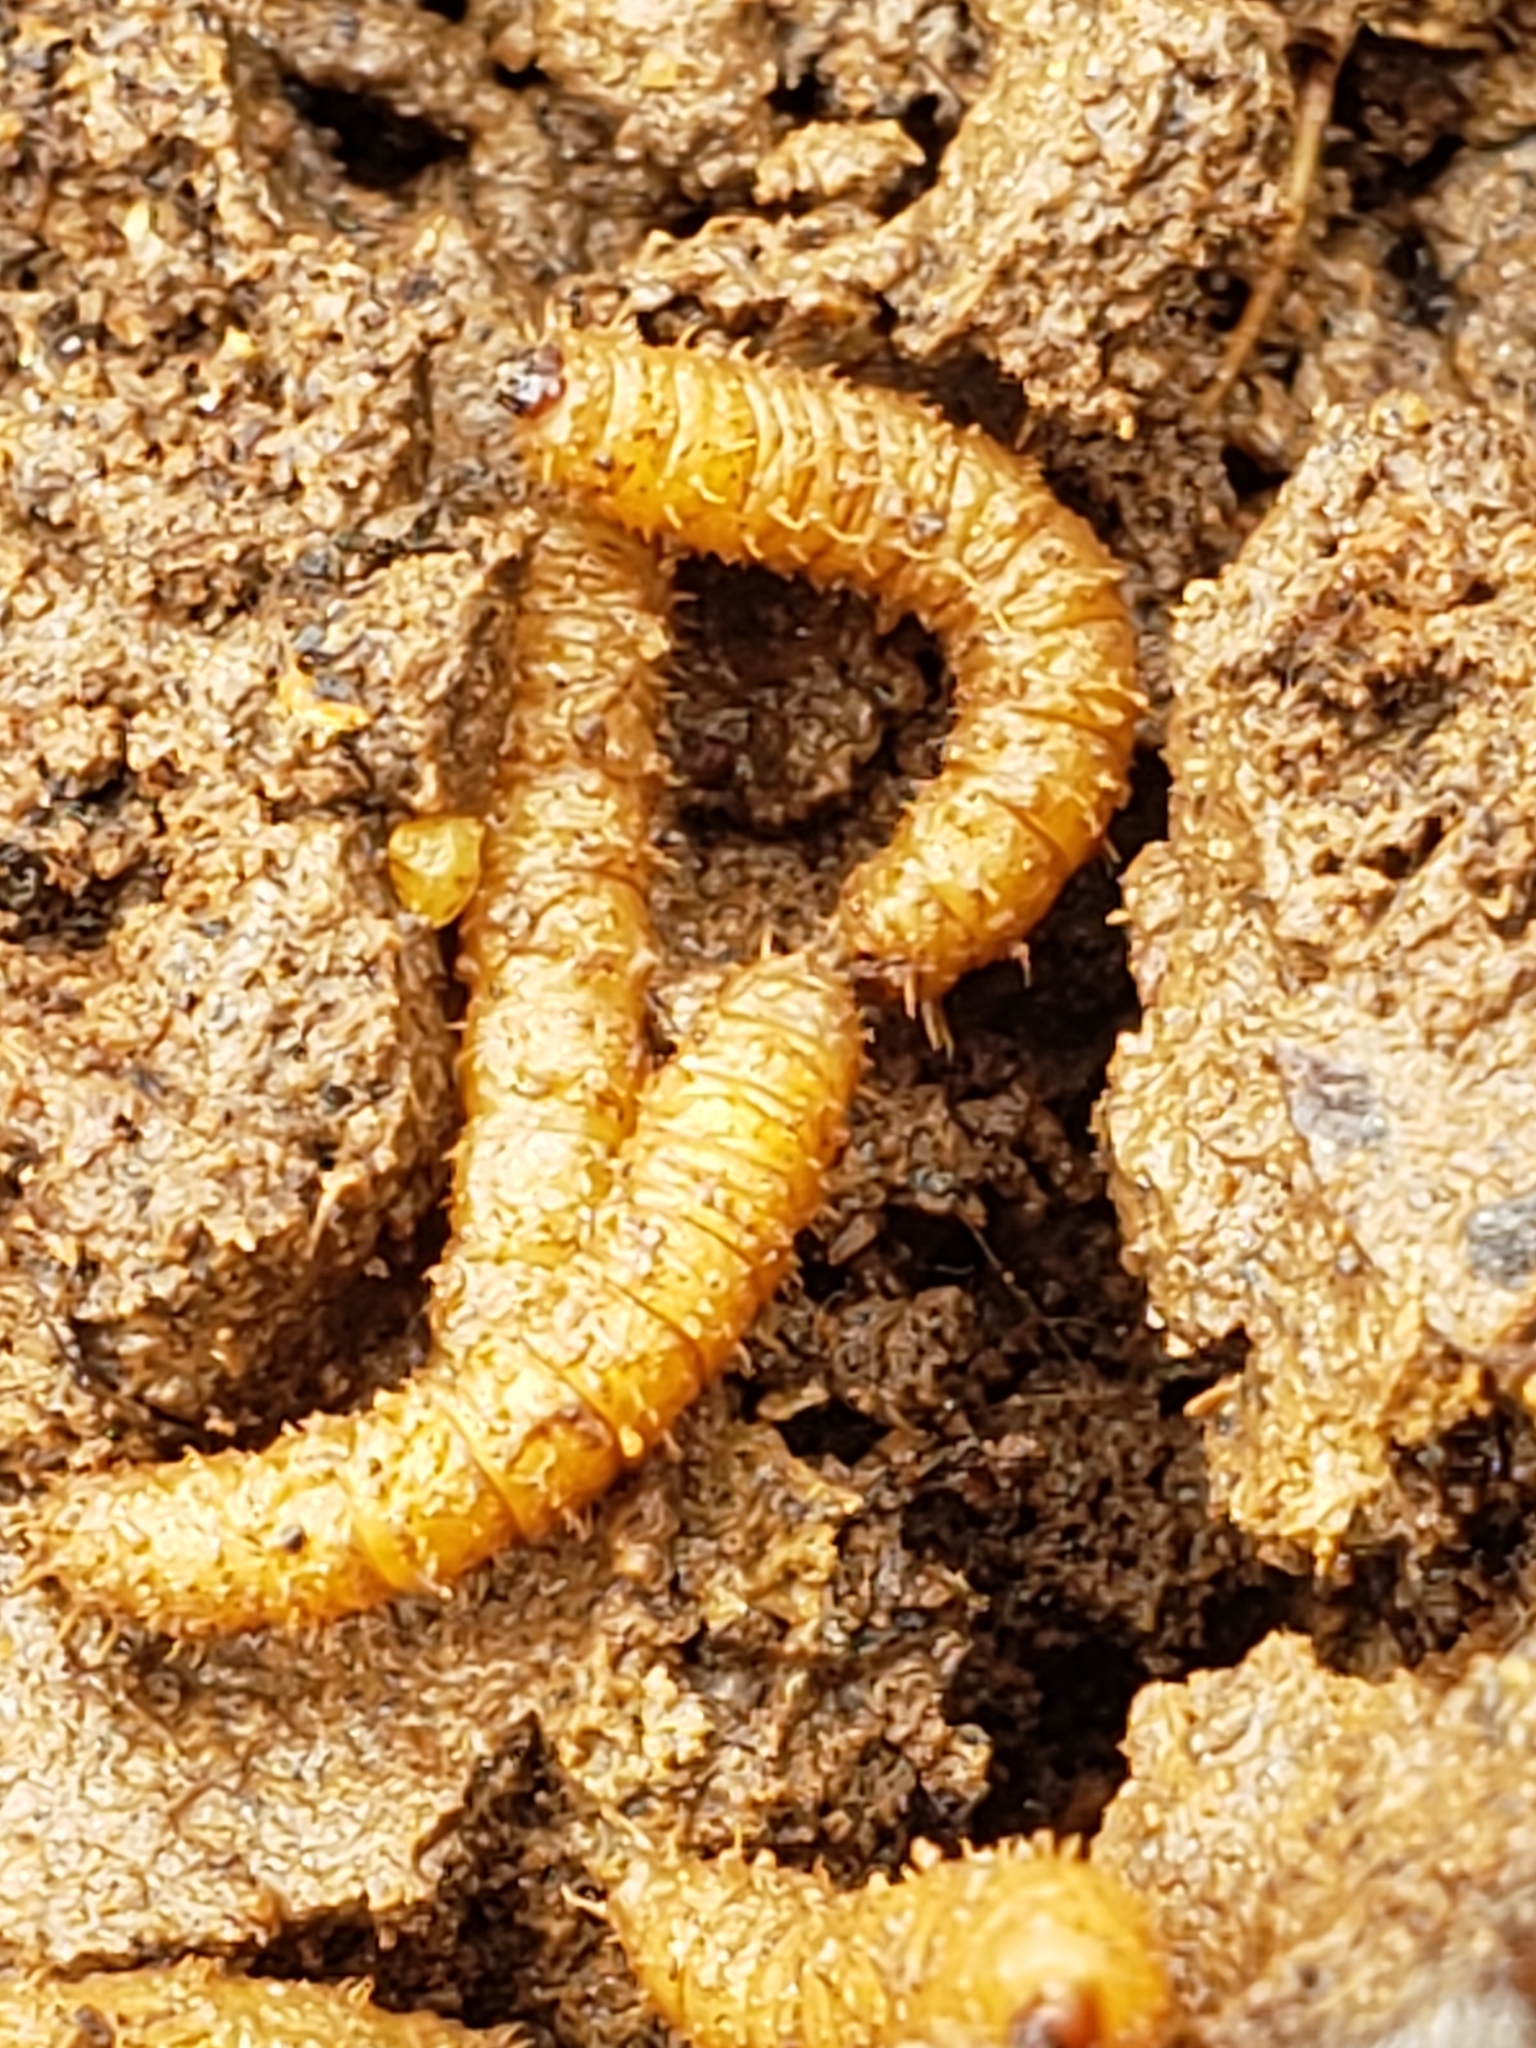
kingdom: Animalia
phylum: Arthropoda
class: Insecta
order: Diptera
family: Bibionidae
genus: Bibio
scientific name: Bibio
